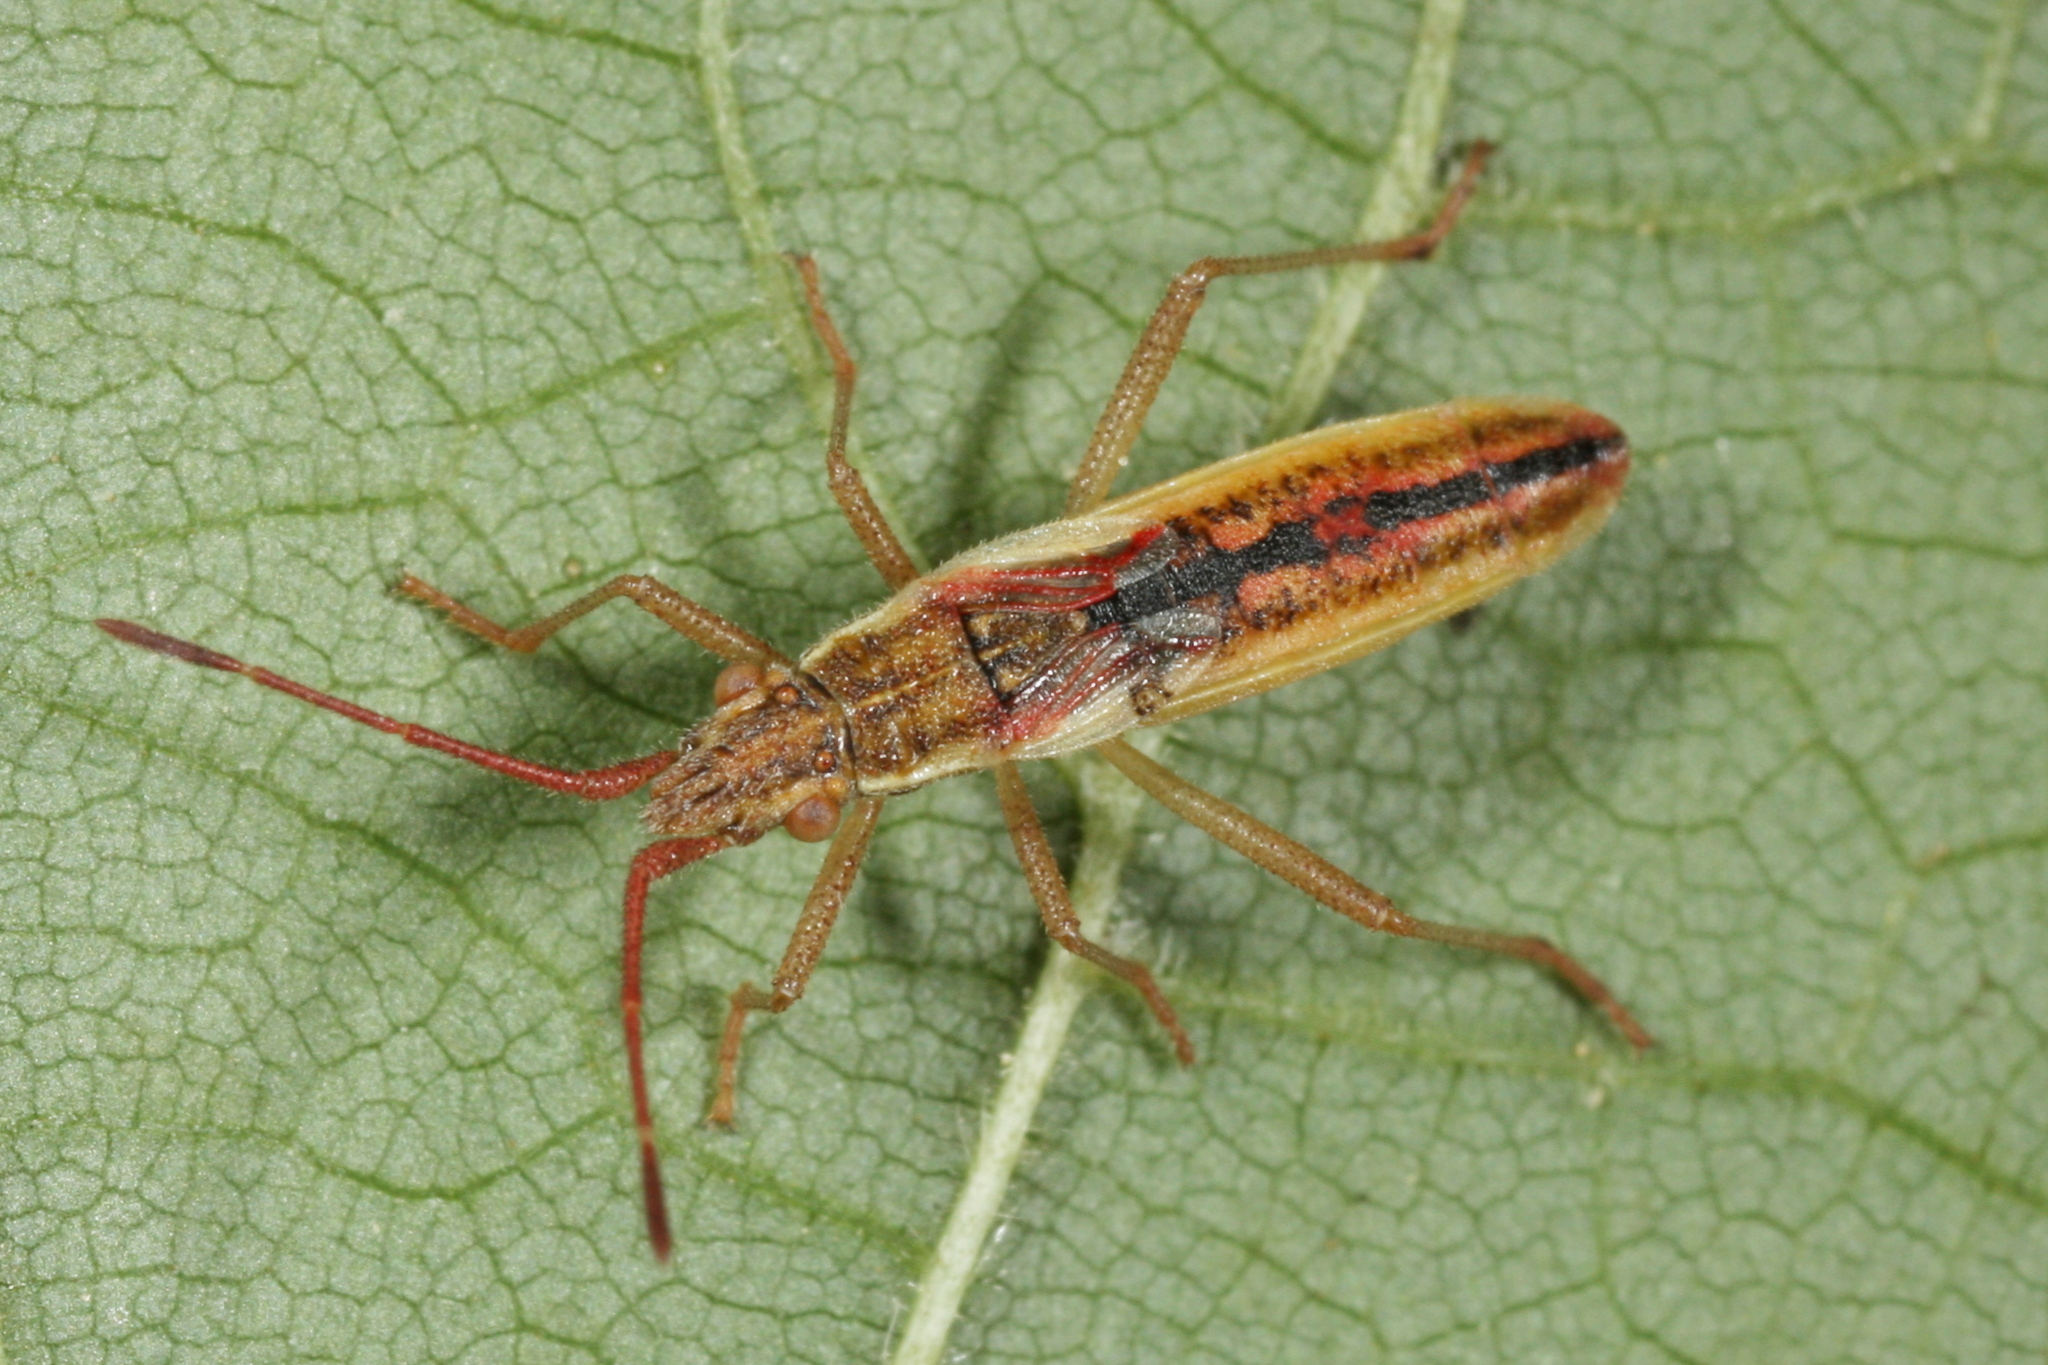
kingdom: Animalia
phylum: Arthropoda
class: Insecta
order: Hemiptera
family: Rhopalidae
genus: Myrmus
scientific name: Myrmus miriformis
